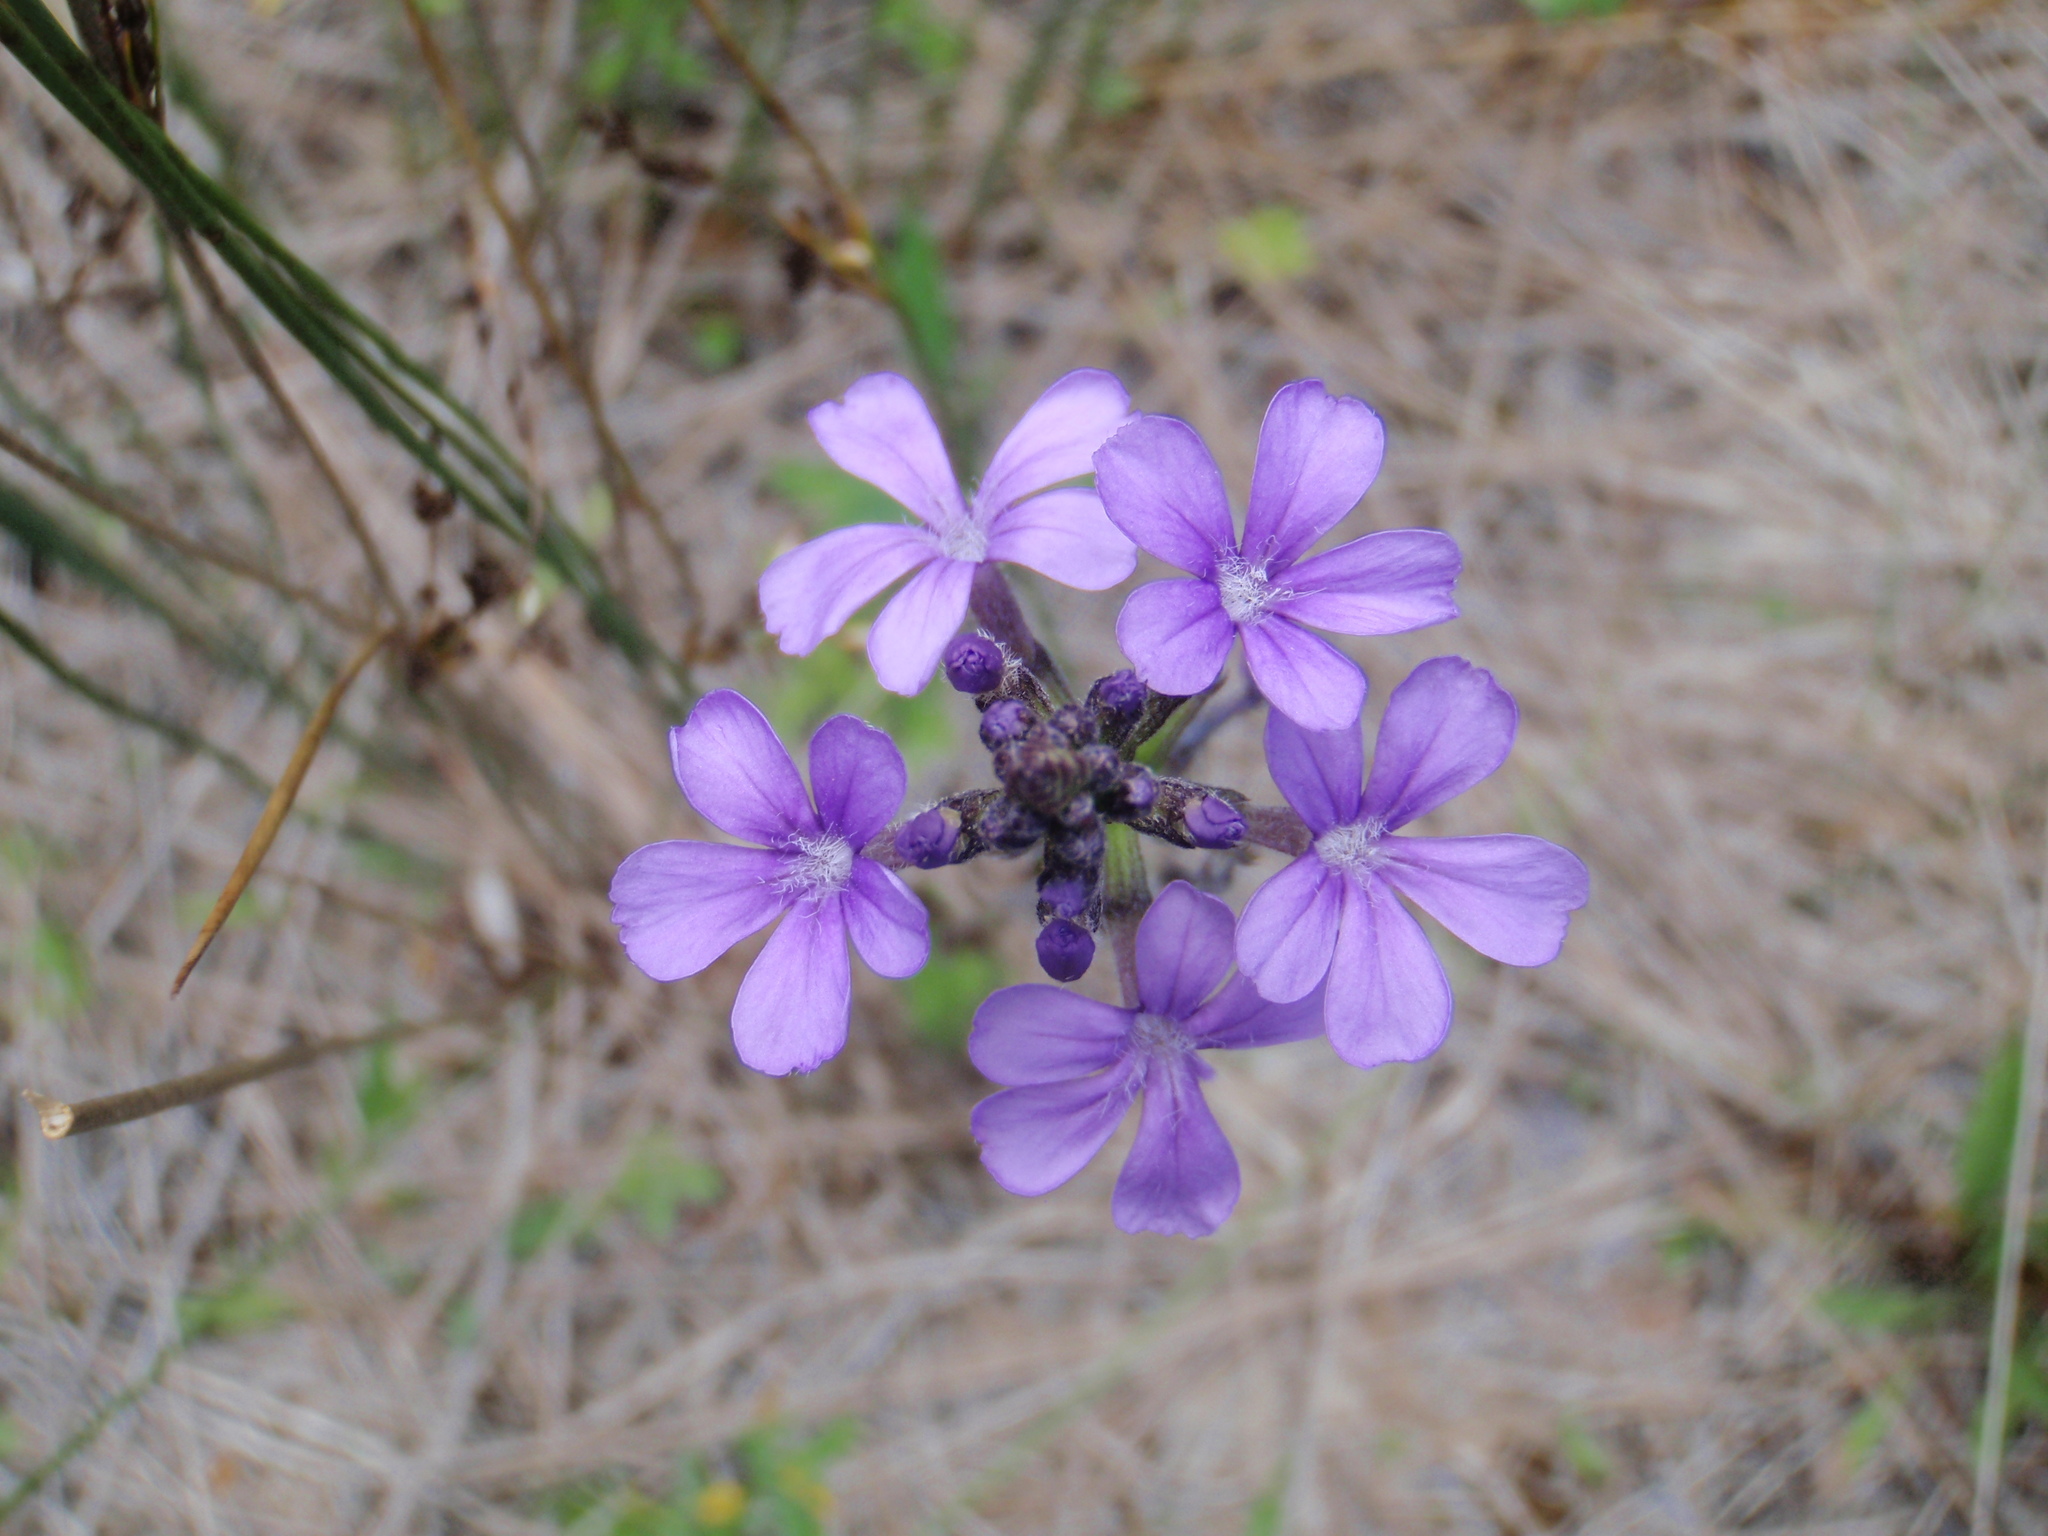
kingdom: Plantae
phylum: Tracheophyta
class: Magnoliopsida
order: Lamiales
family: Orobanchaceae
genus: Buchnera
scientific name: Buchnera americana
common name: American bluehearts
